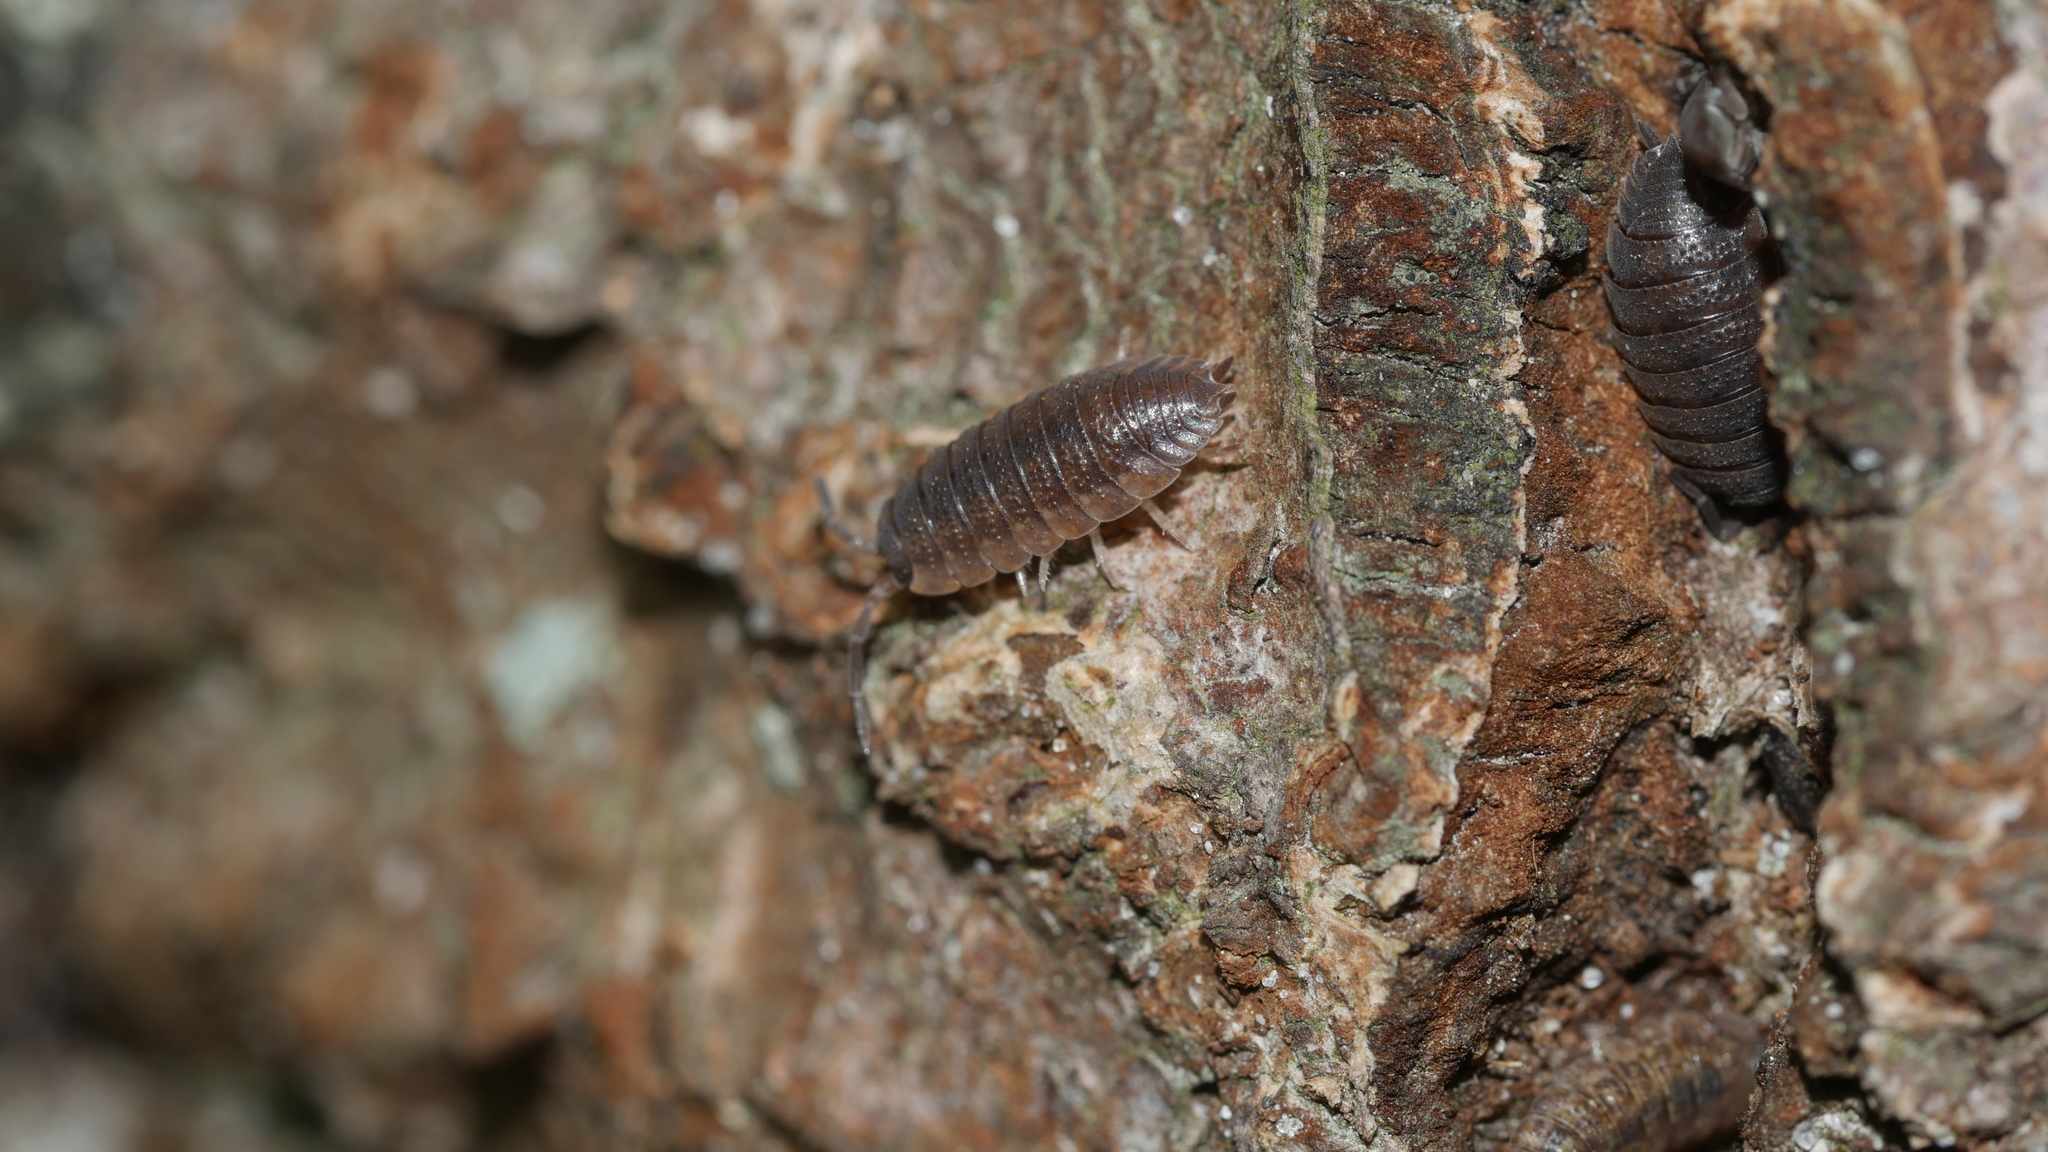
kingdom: Animalia
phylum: Arthropoda
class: Malacostraca
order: Isopoda
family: Porcellionidae
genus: Porcellio
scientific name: Porcellio scaber
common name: Common rough woodlouse
